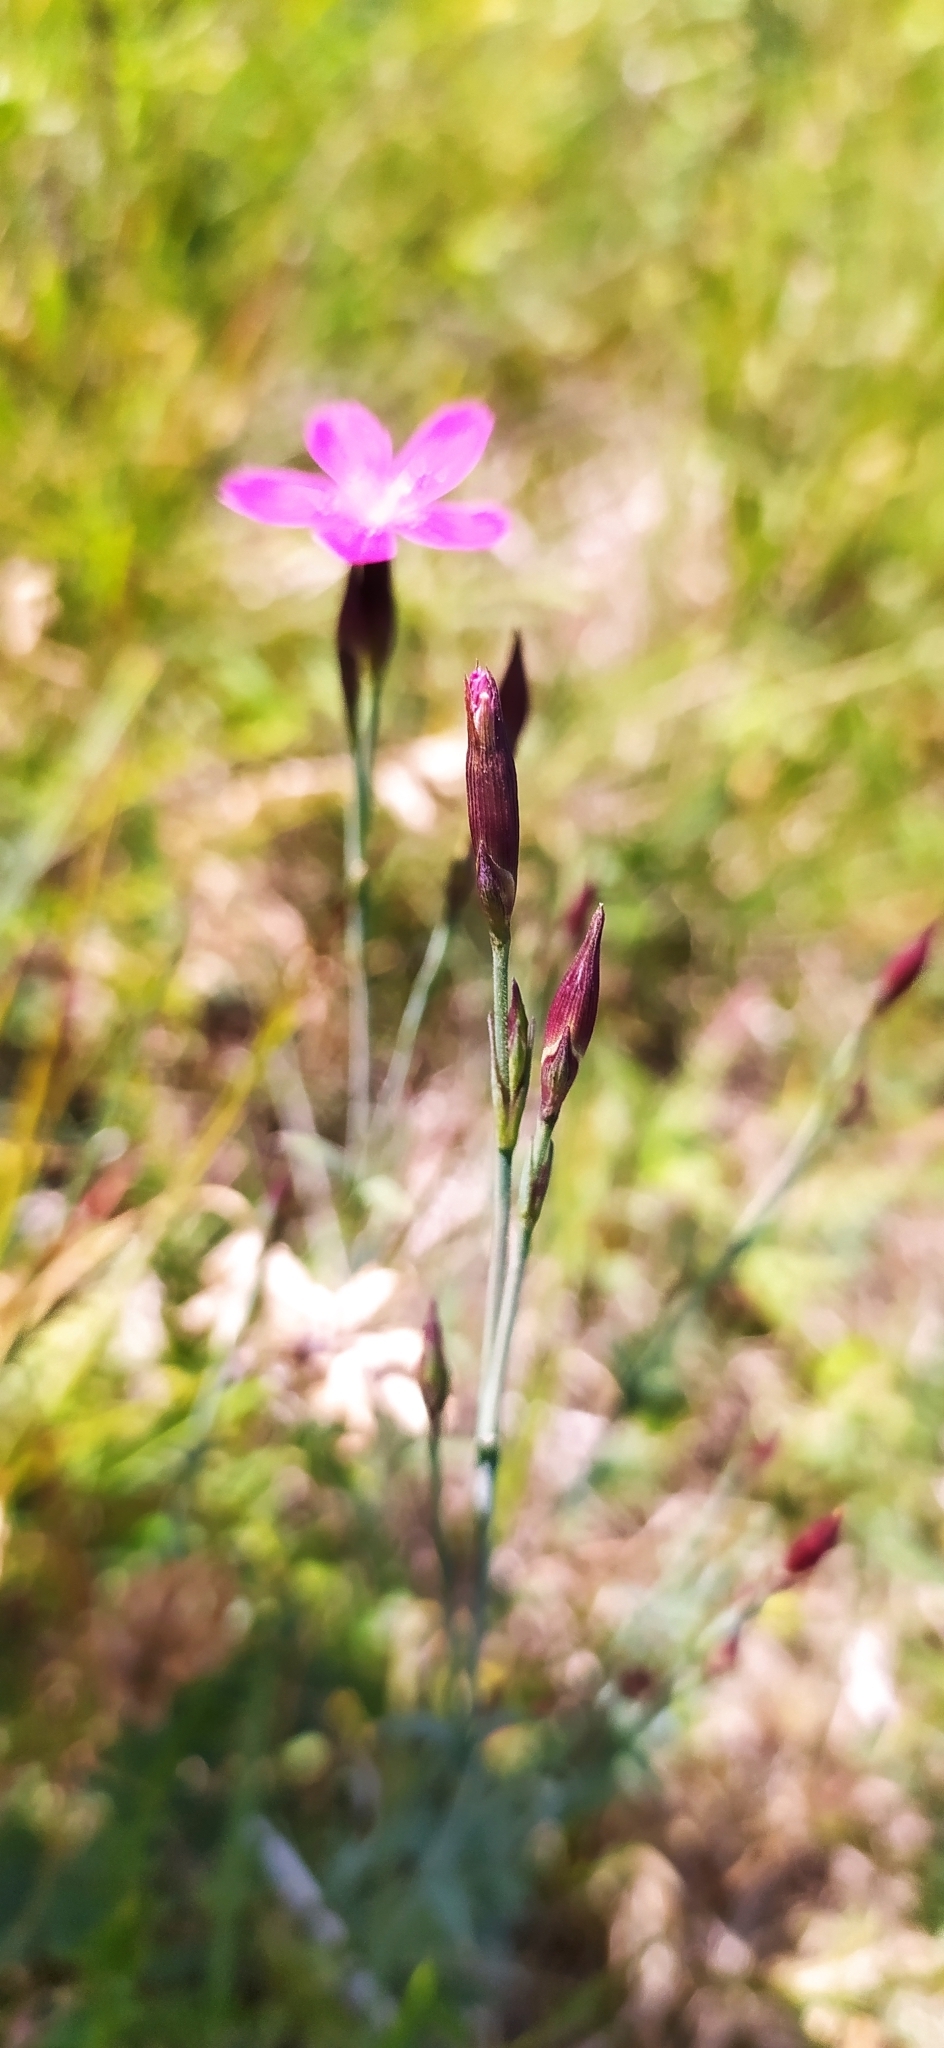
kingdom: Plantae
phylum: Tracheophyta
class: Magnoliopsida
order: Caryophyllales
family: Caryophyllaceae
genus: Dianthus
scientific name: Dianthus deltoides
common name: Maiden pink
